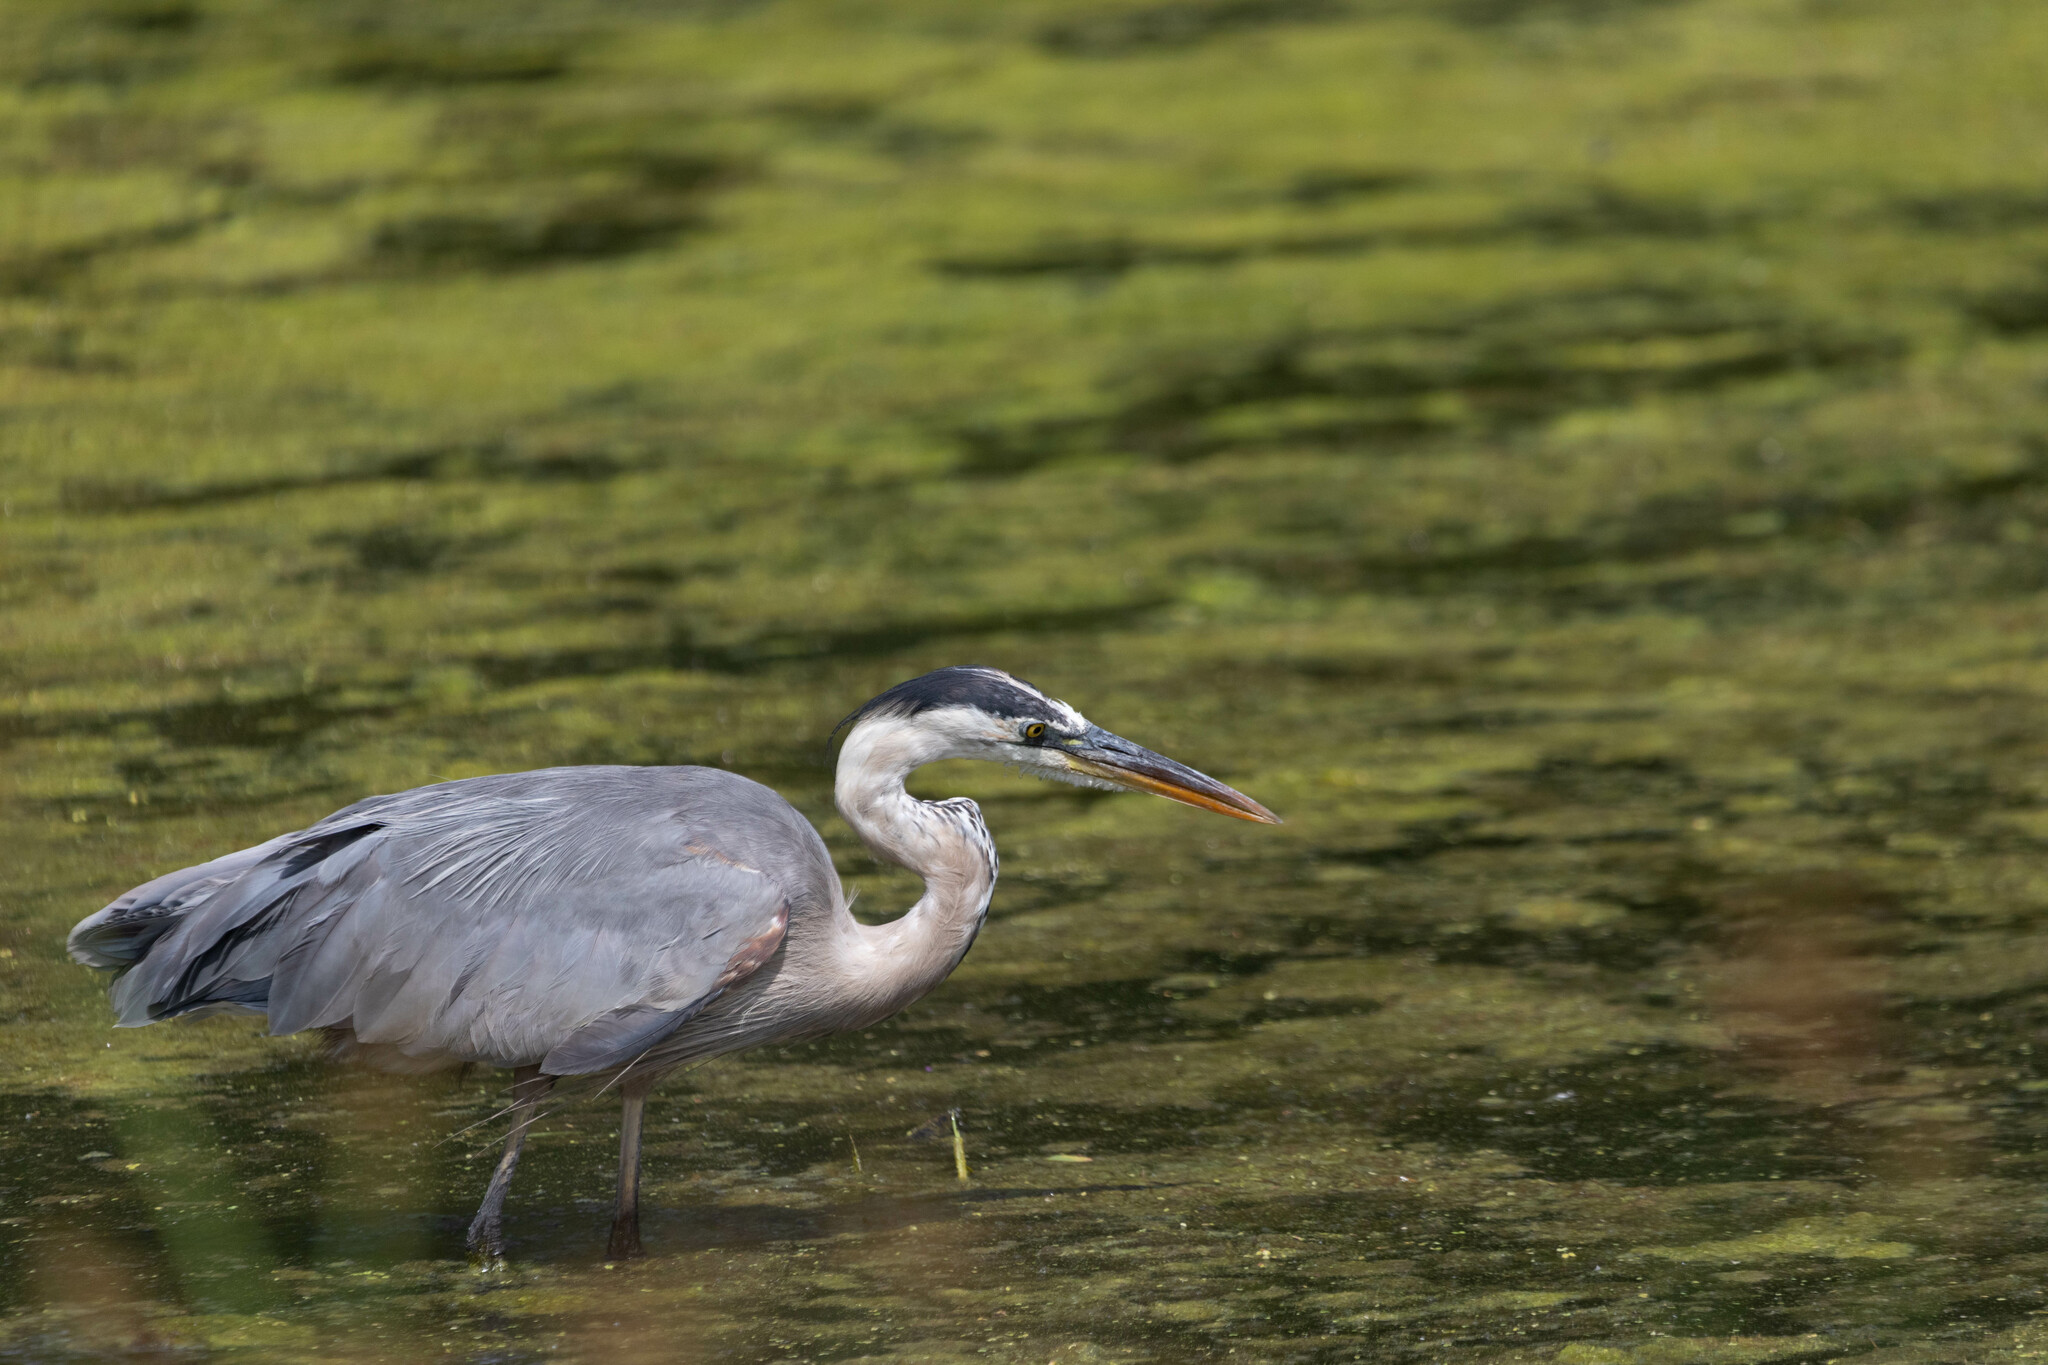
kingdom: Animalia
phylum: Chordata
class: Aves
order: Pelecaniformes
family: Ardeidae
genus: Ardea
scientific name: Ardea herodias
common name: Great blue heron
